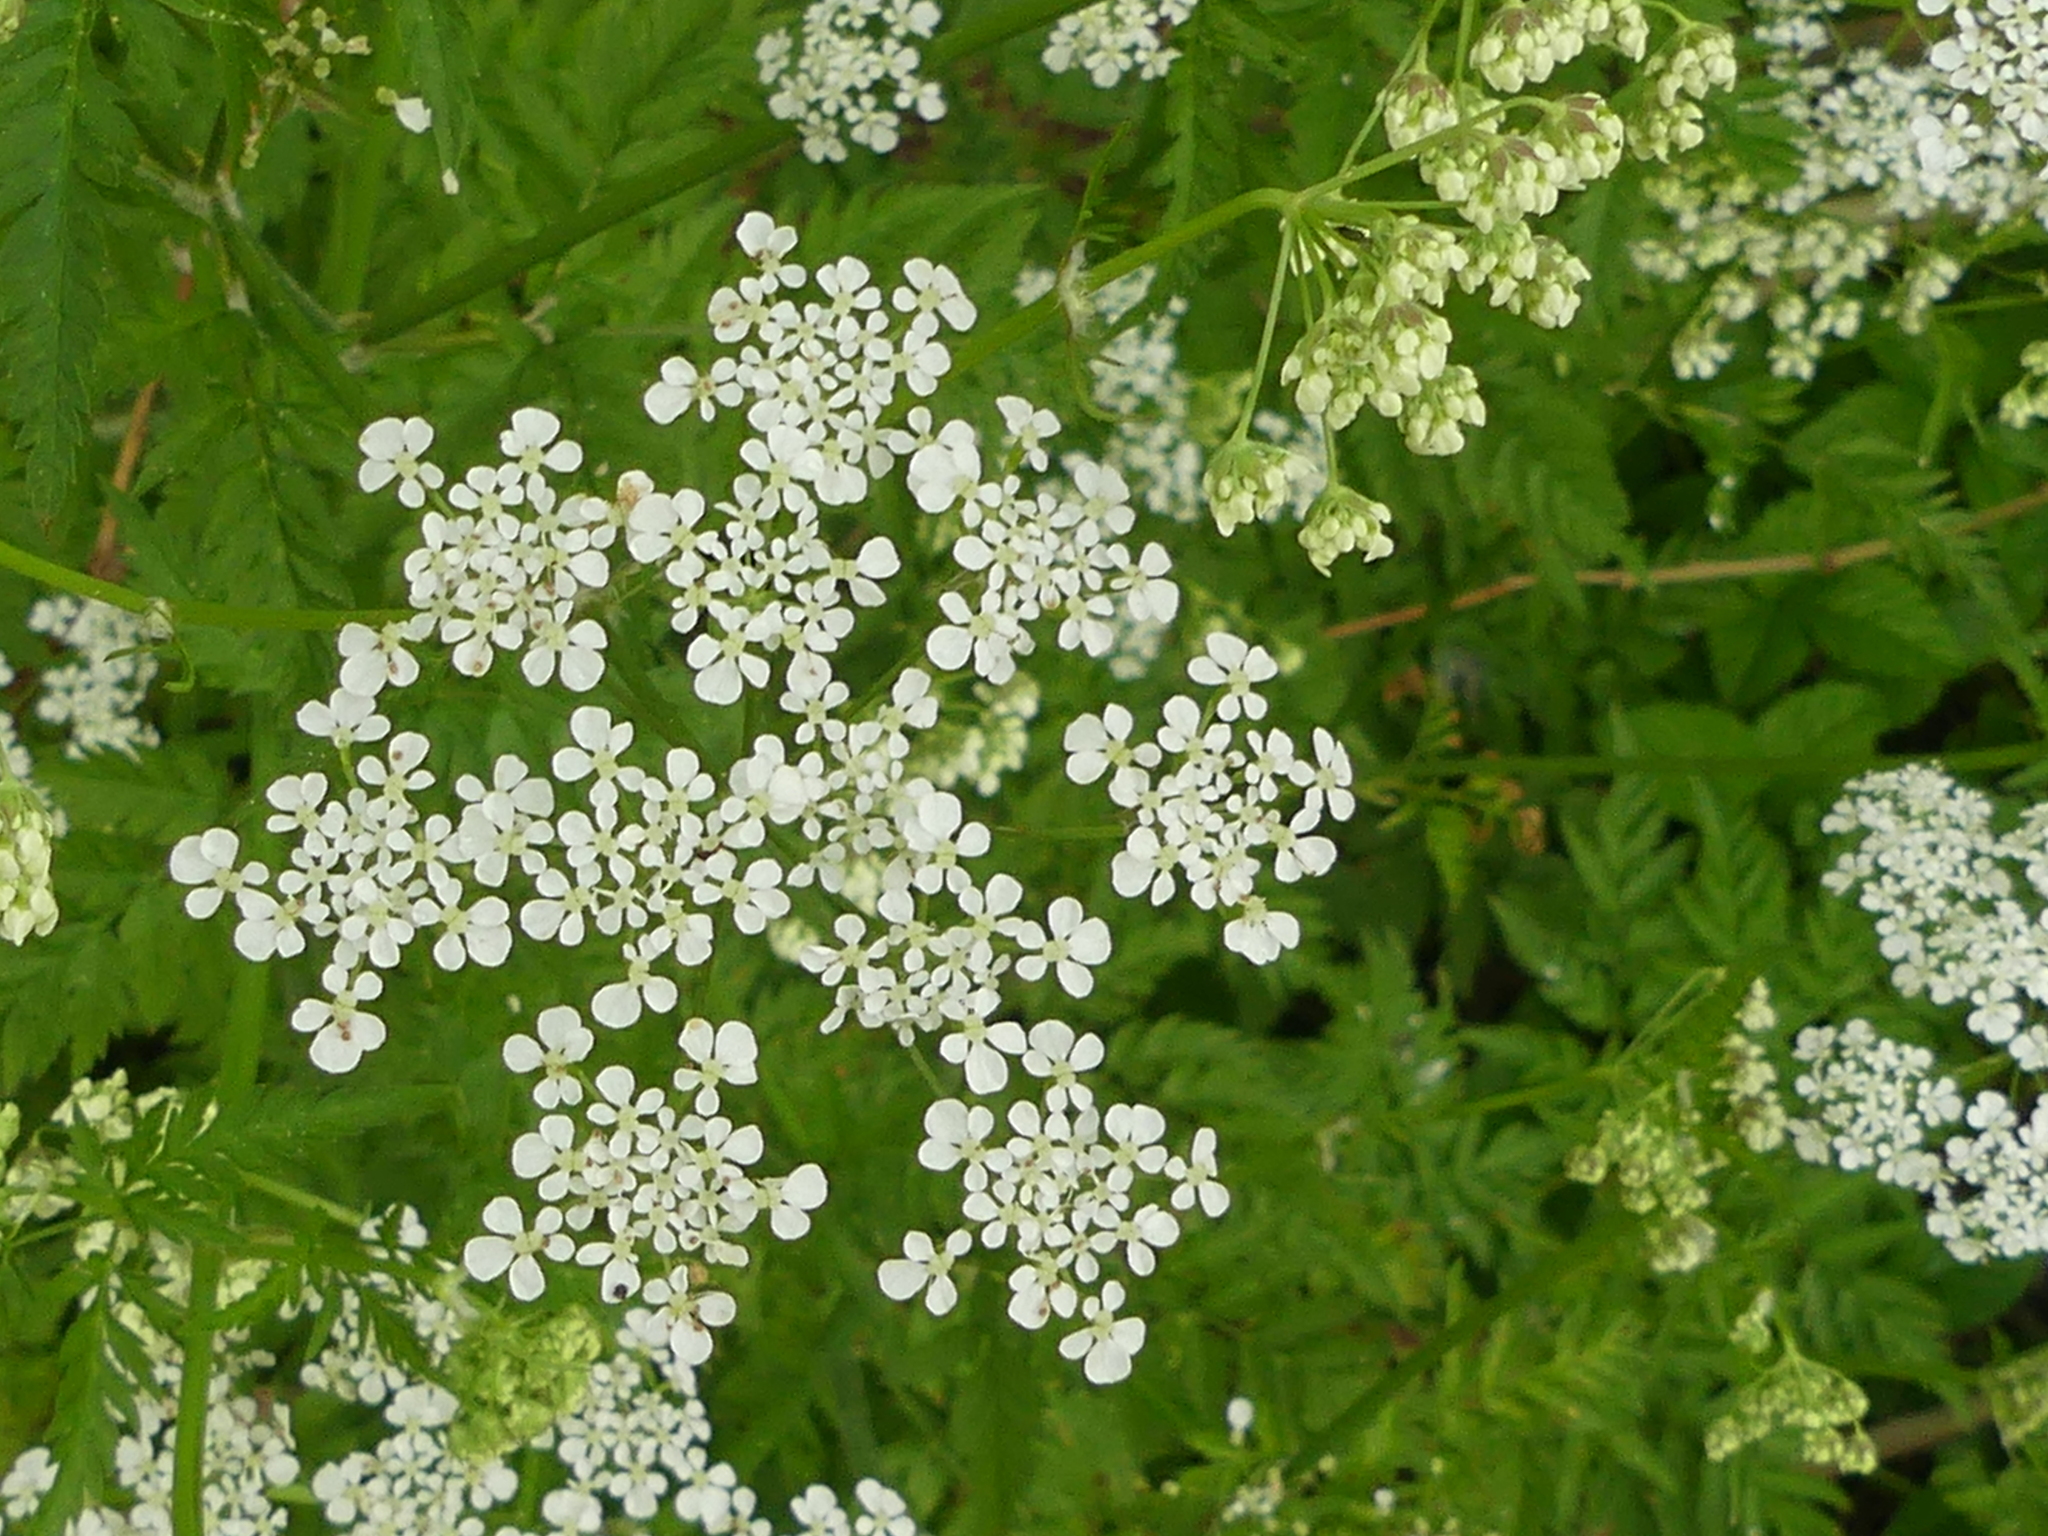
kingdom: Plantae
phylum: Tracheophyta
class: Magnoliopsida
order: Apiales
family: Apiaceae
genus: Anthriscus
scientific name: Anthriscus sylvestris
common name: Cow parsley
